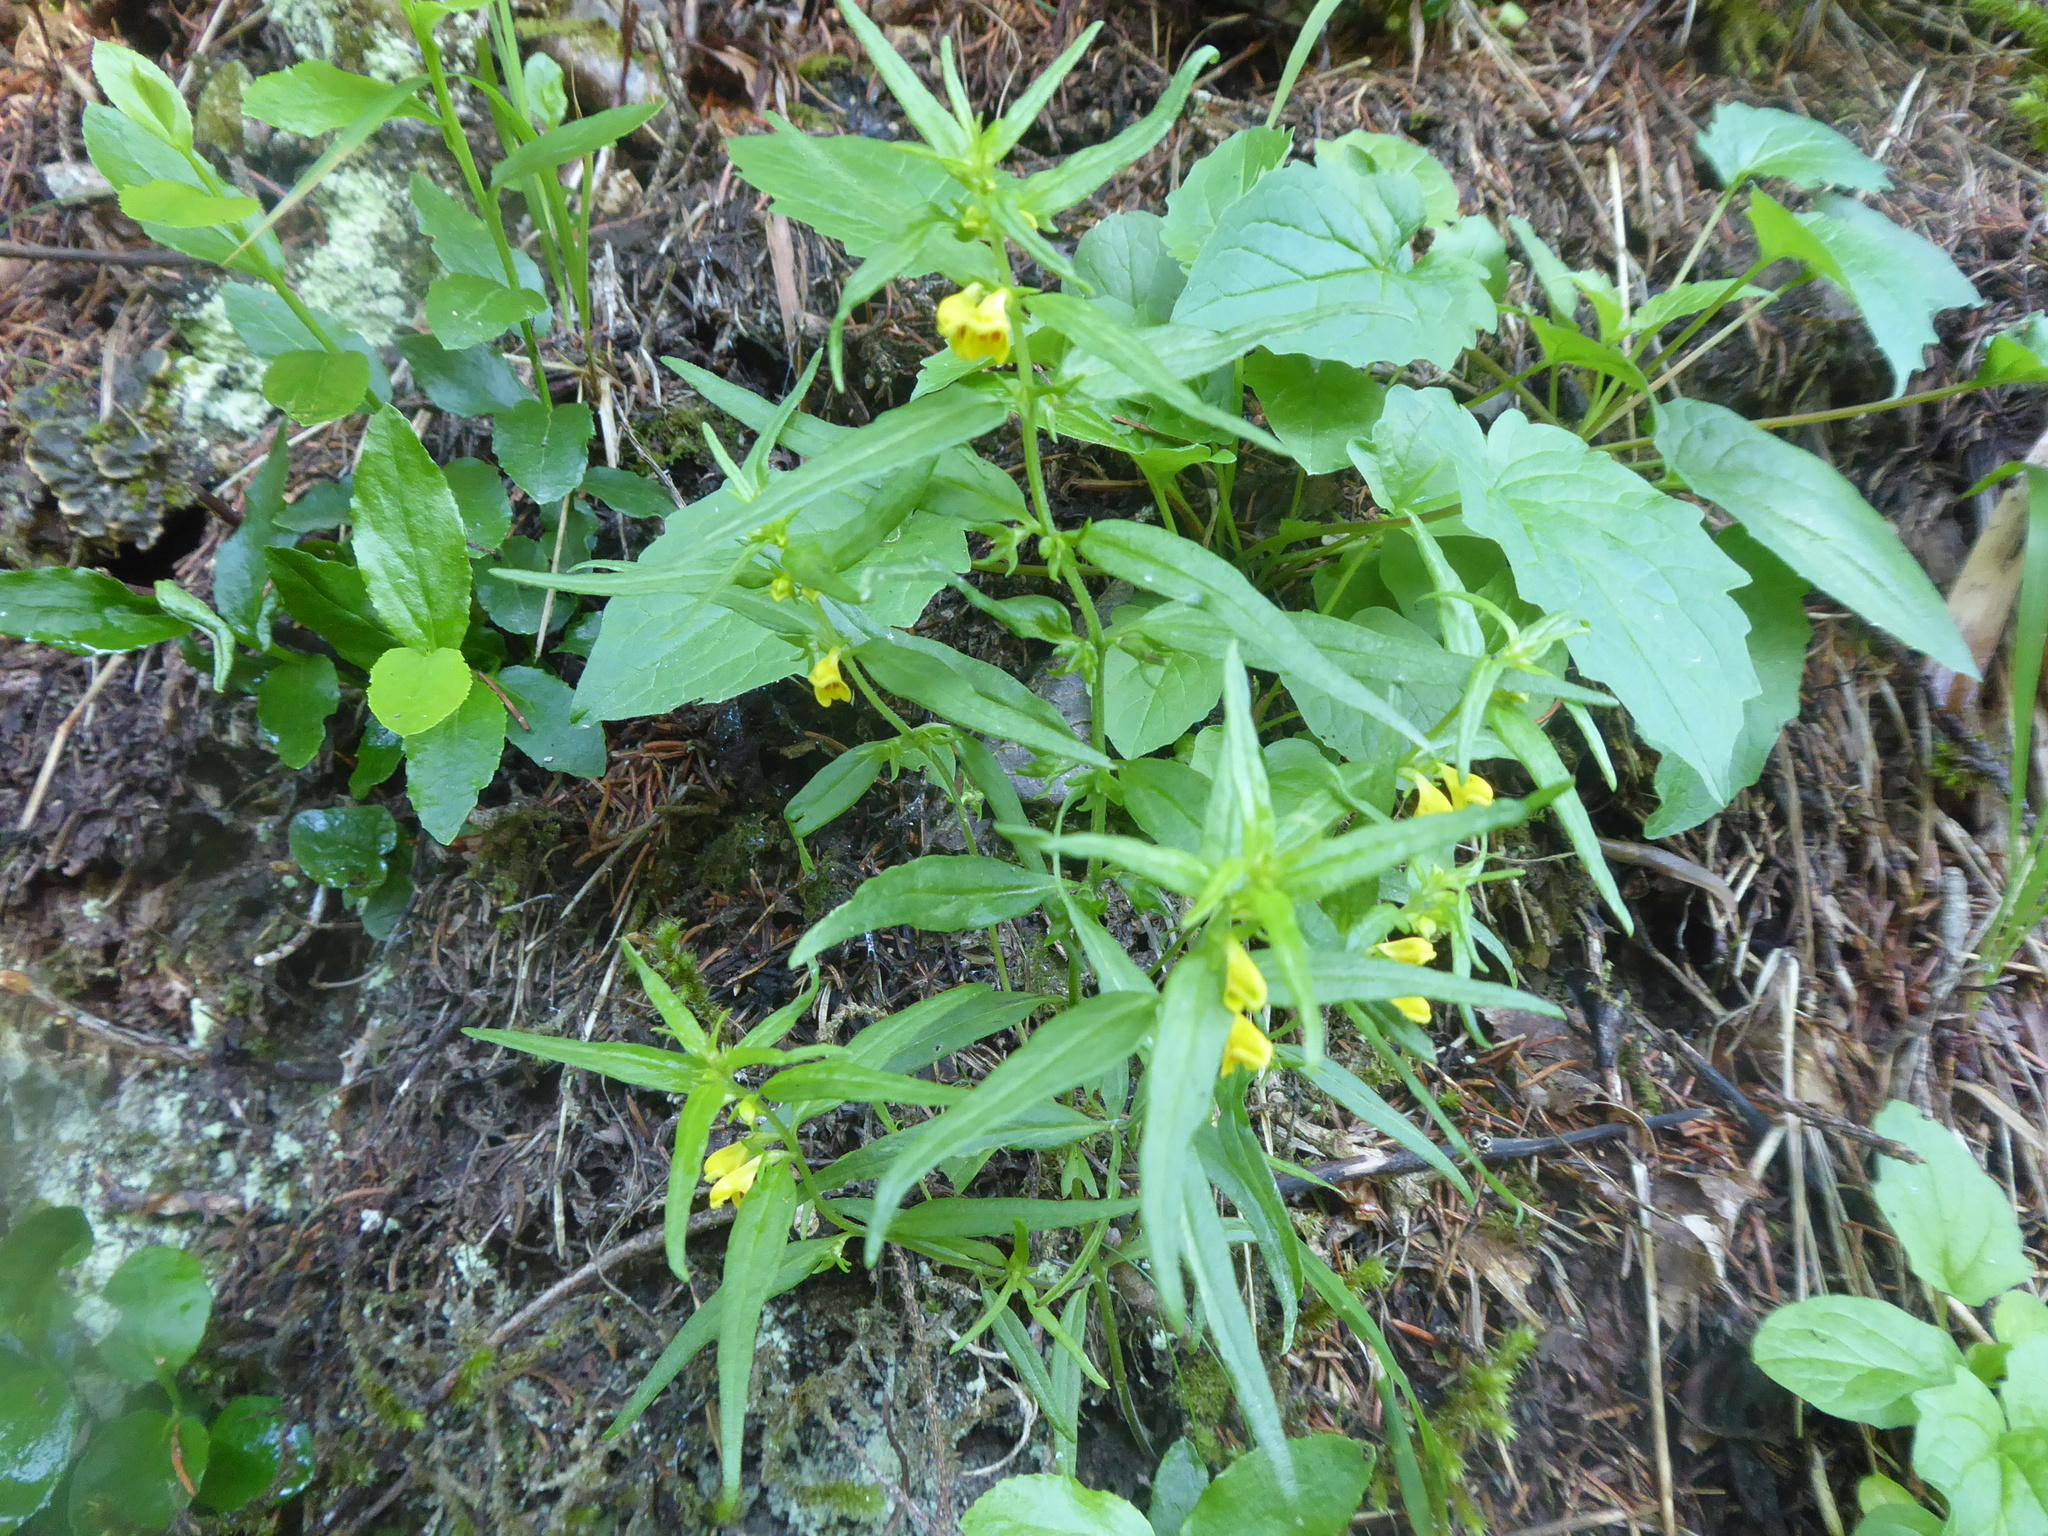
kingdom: Plantae
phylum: Tracheophyta
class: Magnoliopsida
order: Lamiales
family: Orobanchaceae
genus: Melampyrum
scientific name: Melampyrum sylvaticum
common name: Small cow-wheat
